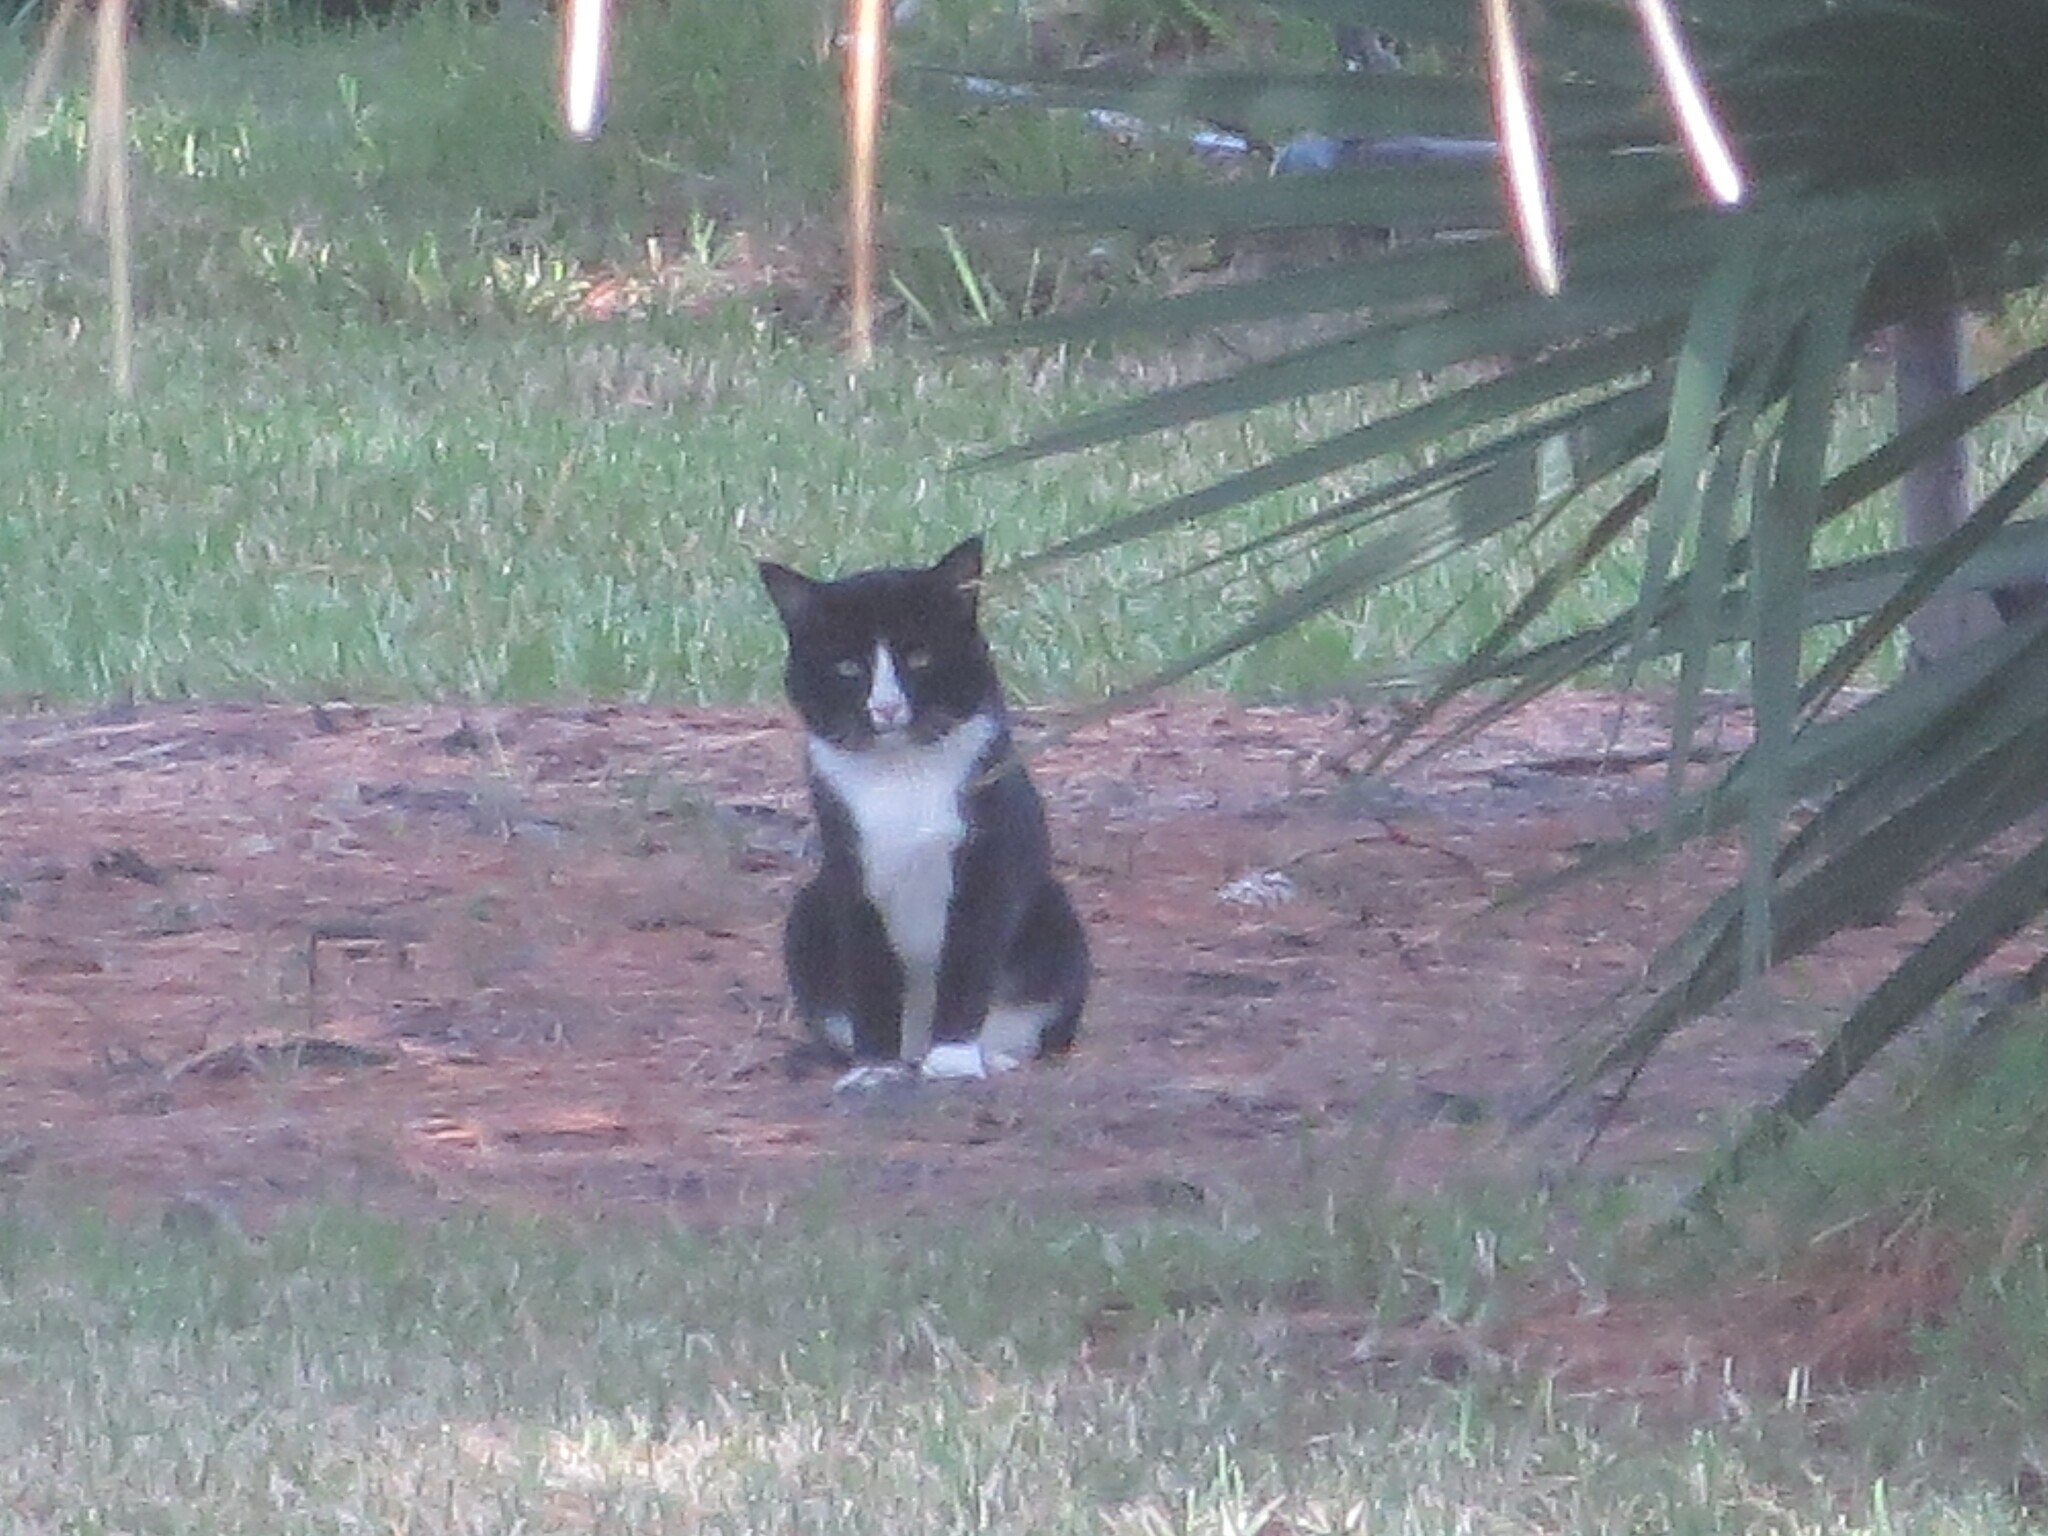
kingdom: Animalia
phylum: Chordata
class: Mammalia
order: Carnivora
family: Felidae
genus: Felis
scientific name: Felis catus
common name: Domestic cat
